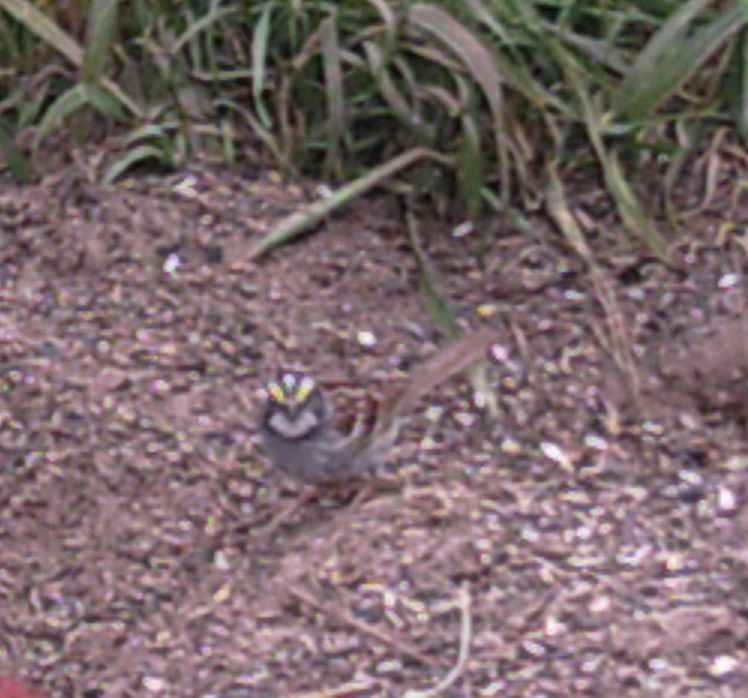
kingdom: Animalia
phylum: Chordata
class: Aves
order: Passeriformes
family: Passerellidae
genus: Zonotrichia
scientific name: Zonotrichia albicollis
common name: White-throated sparrow
